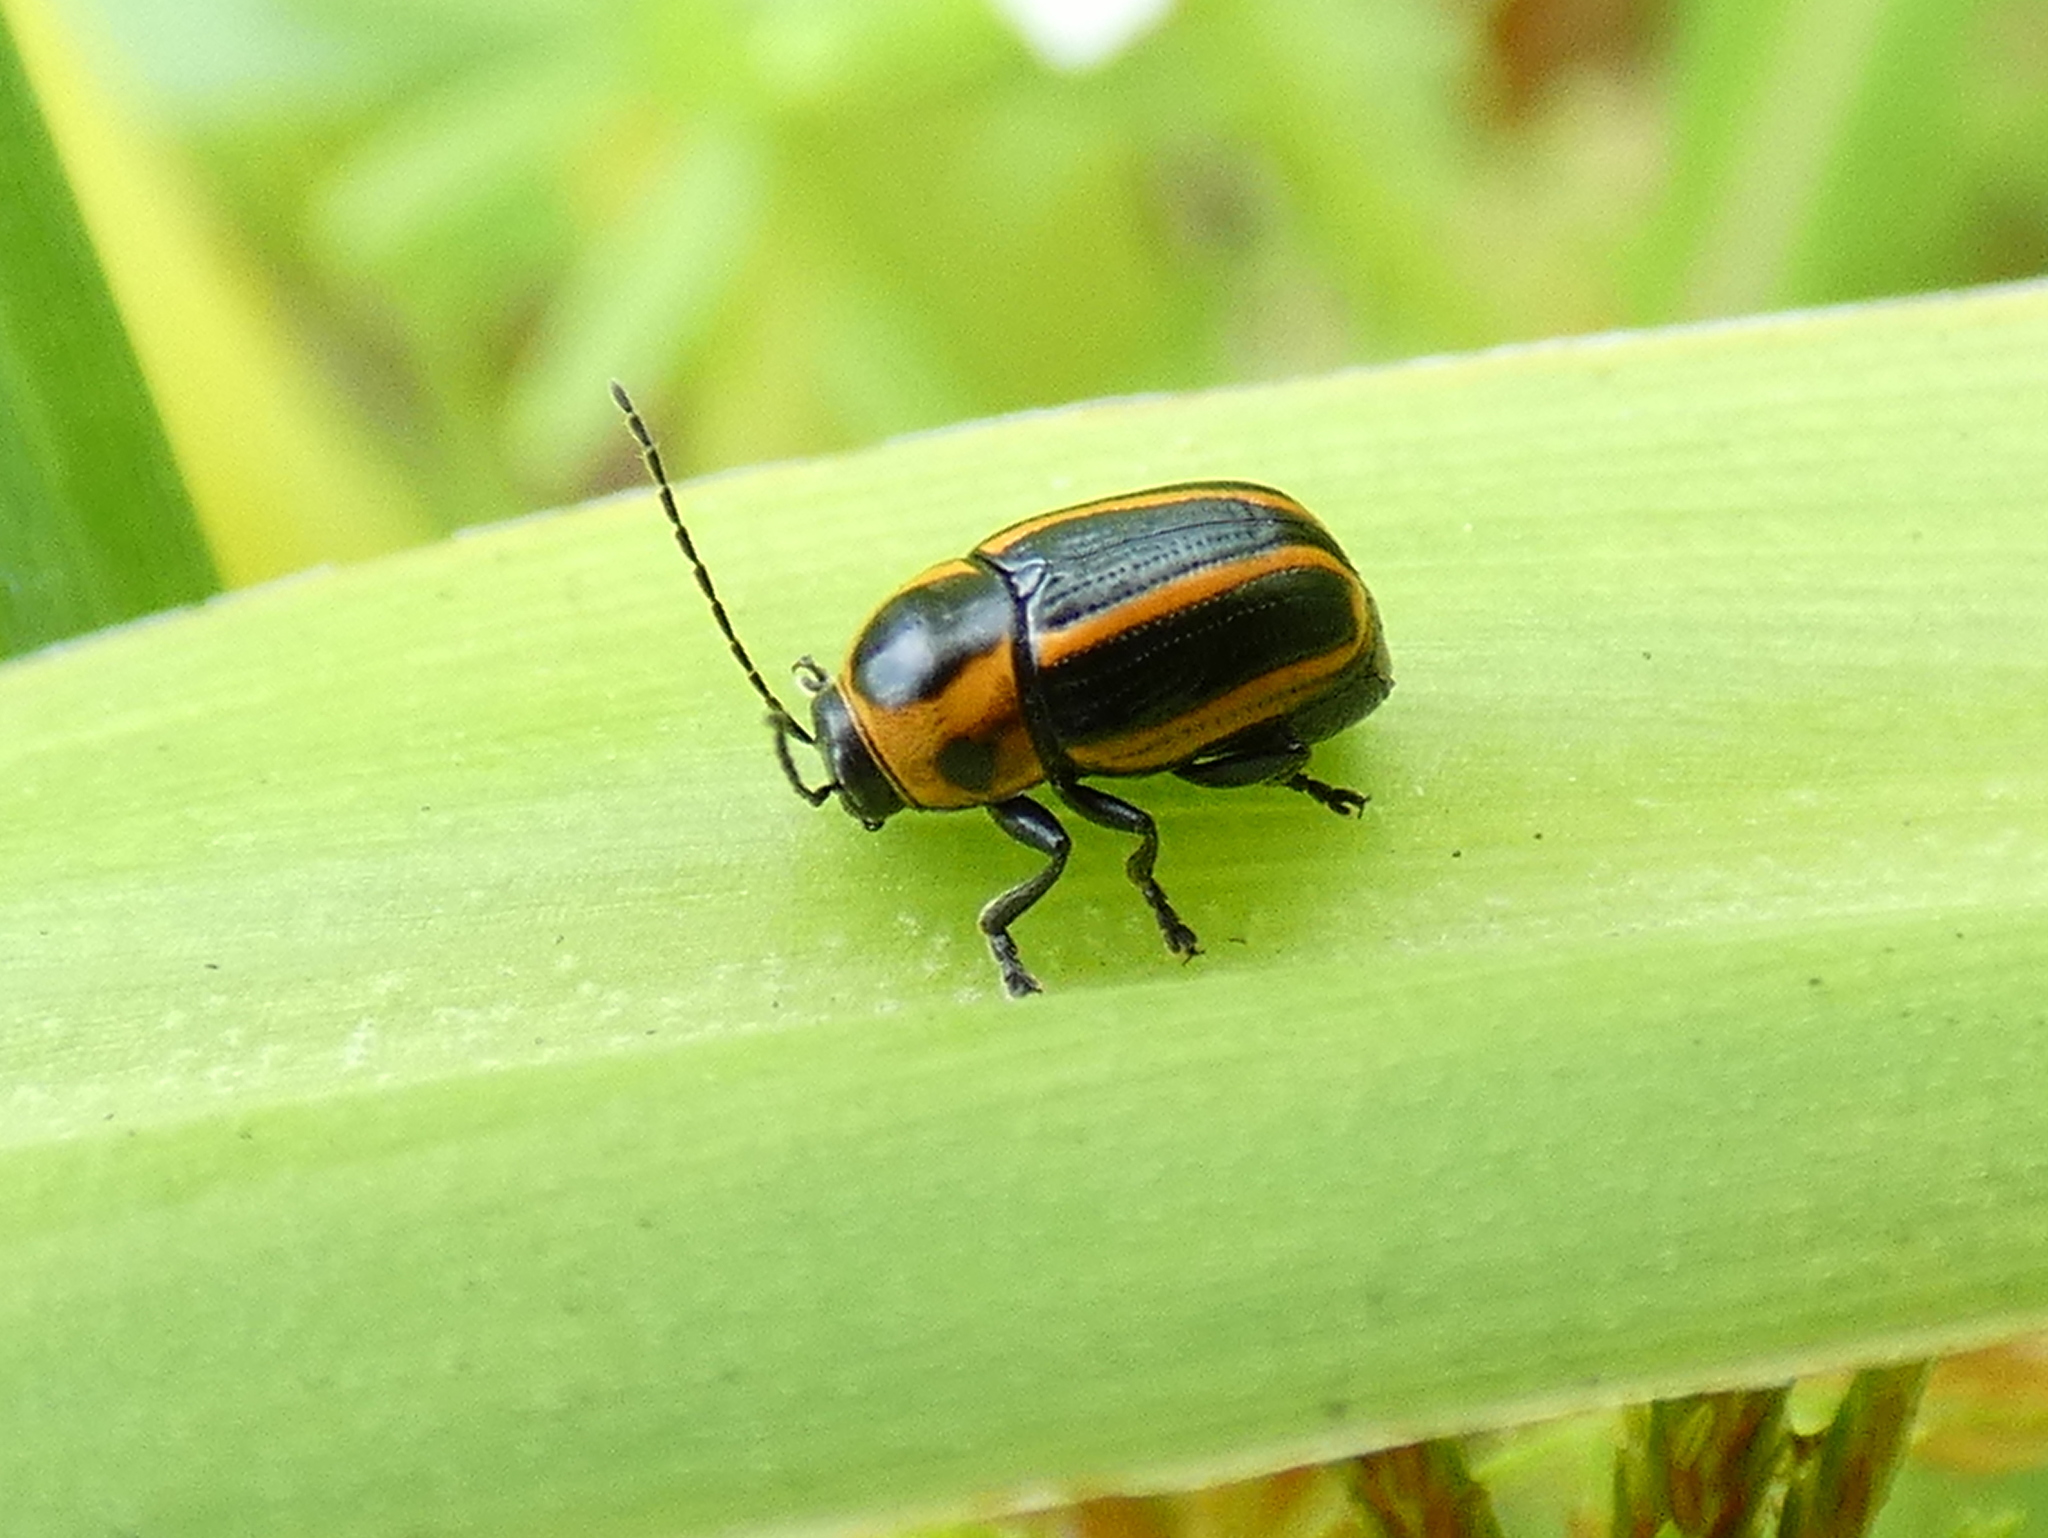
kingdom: Animalia
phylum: Arthropoda
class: Insecta
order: Coleoptera
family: Chrysomelidae
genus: Bassareus
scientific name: Bassareus lituratus
